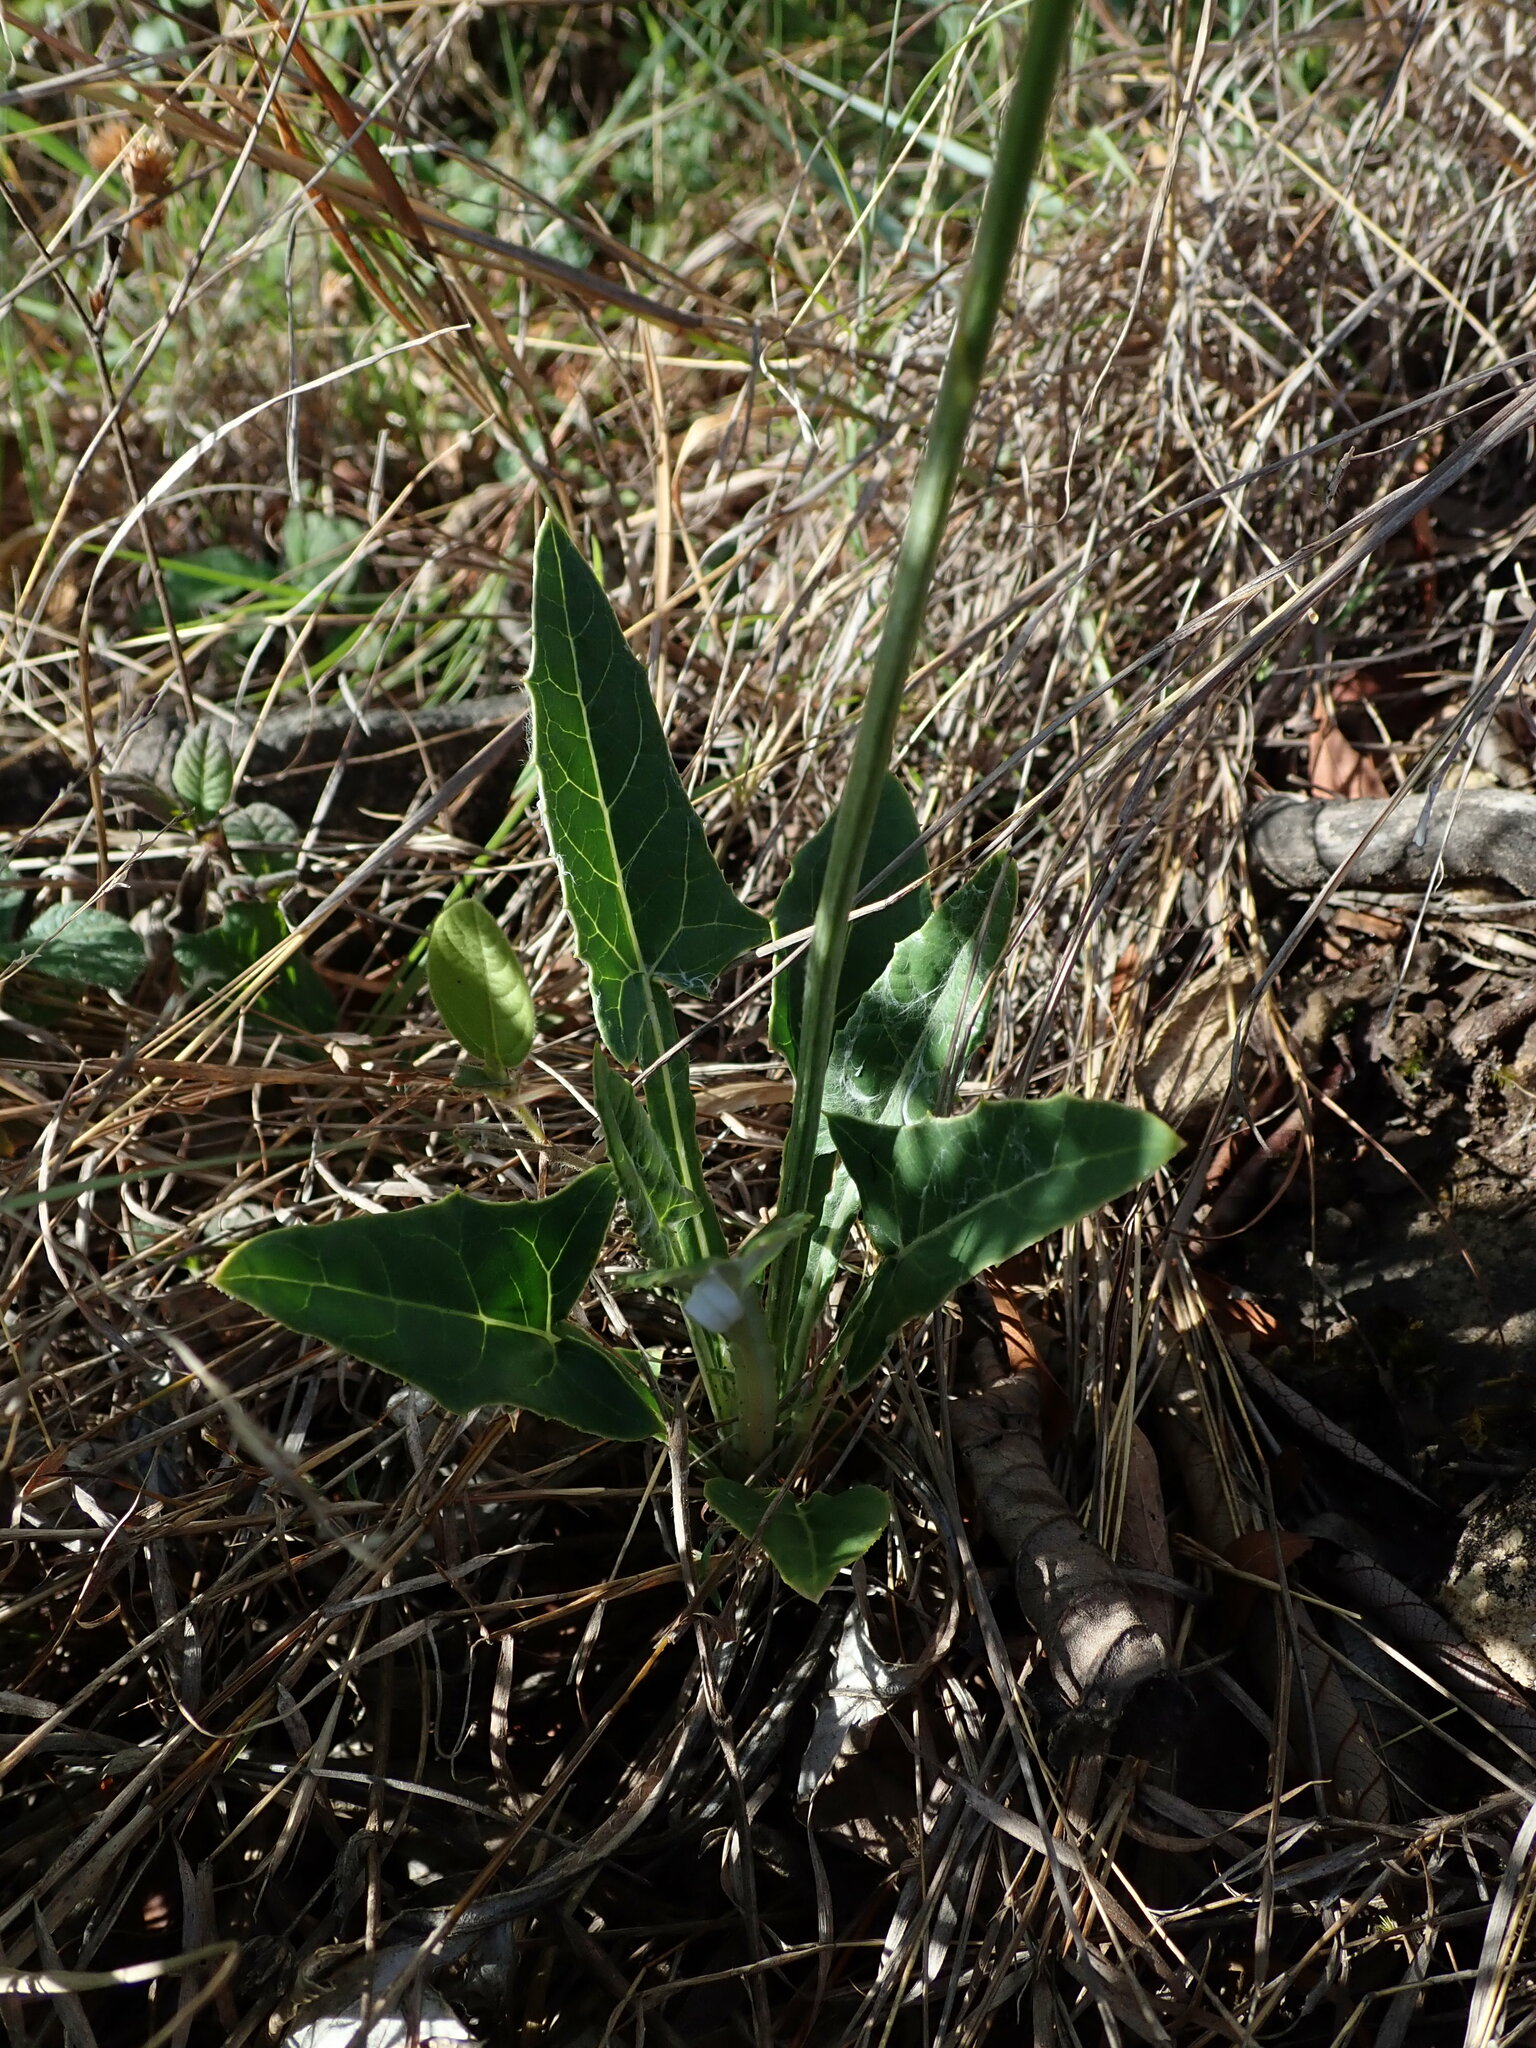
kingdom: Plantae
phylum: Tracheophyta
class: Magnoliopsida
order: Asterales
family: Asteraceae
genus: Onoseris
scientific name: Onoseris alata
